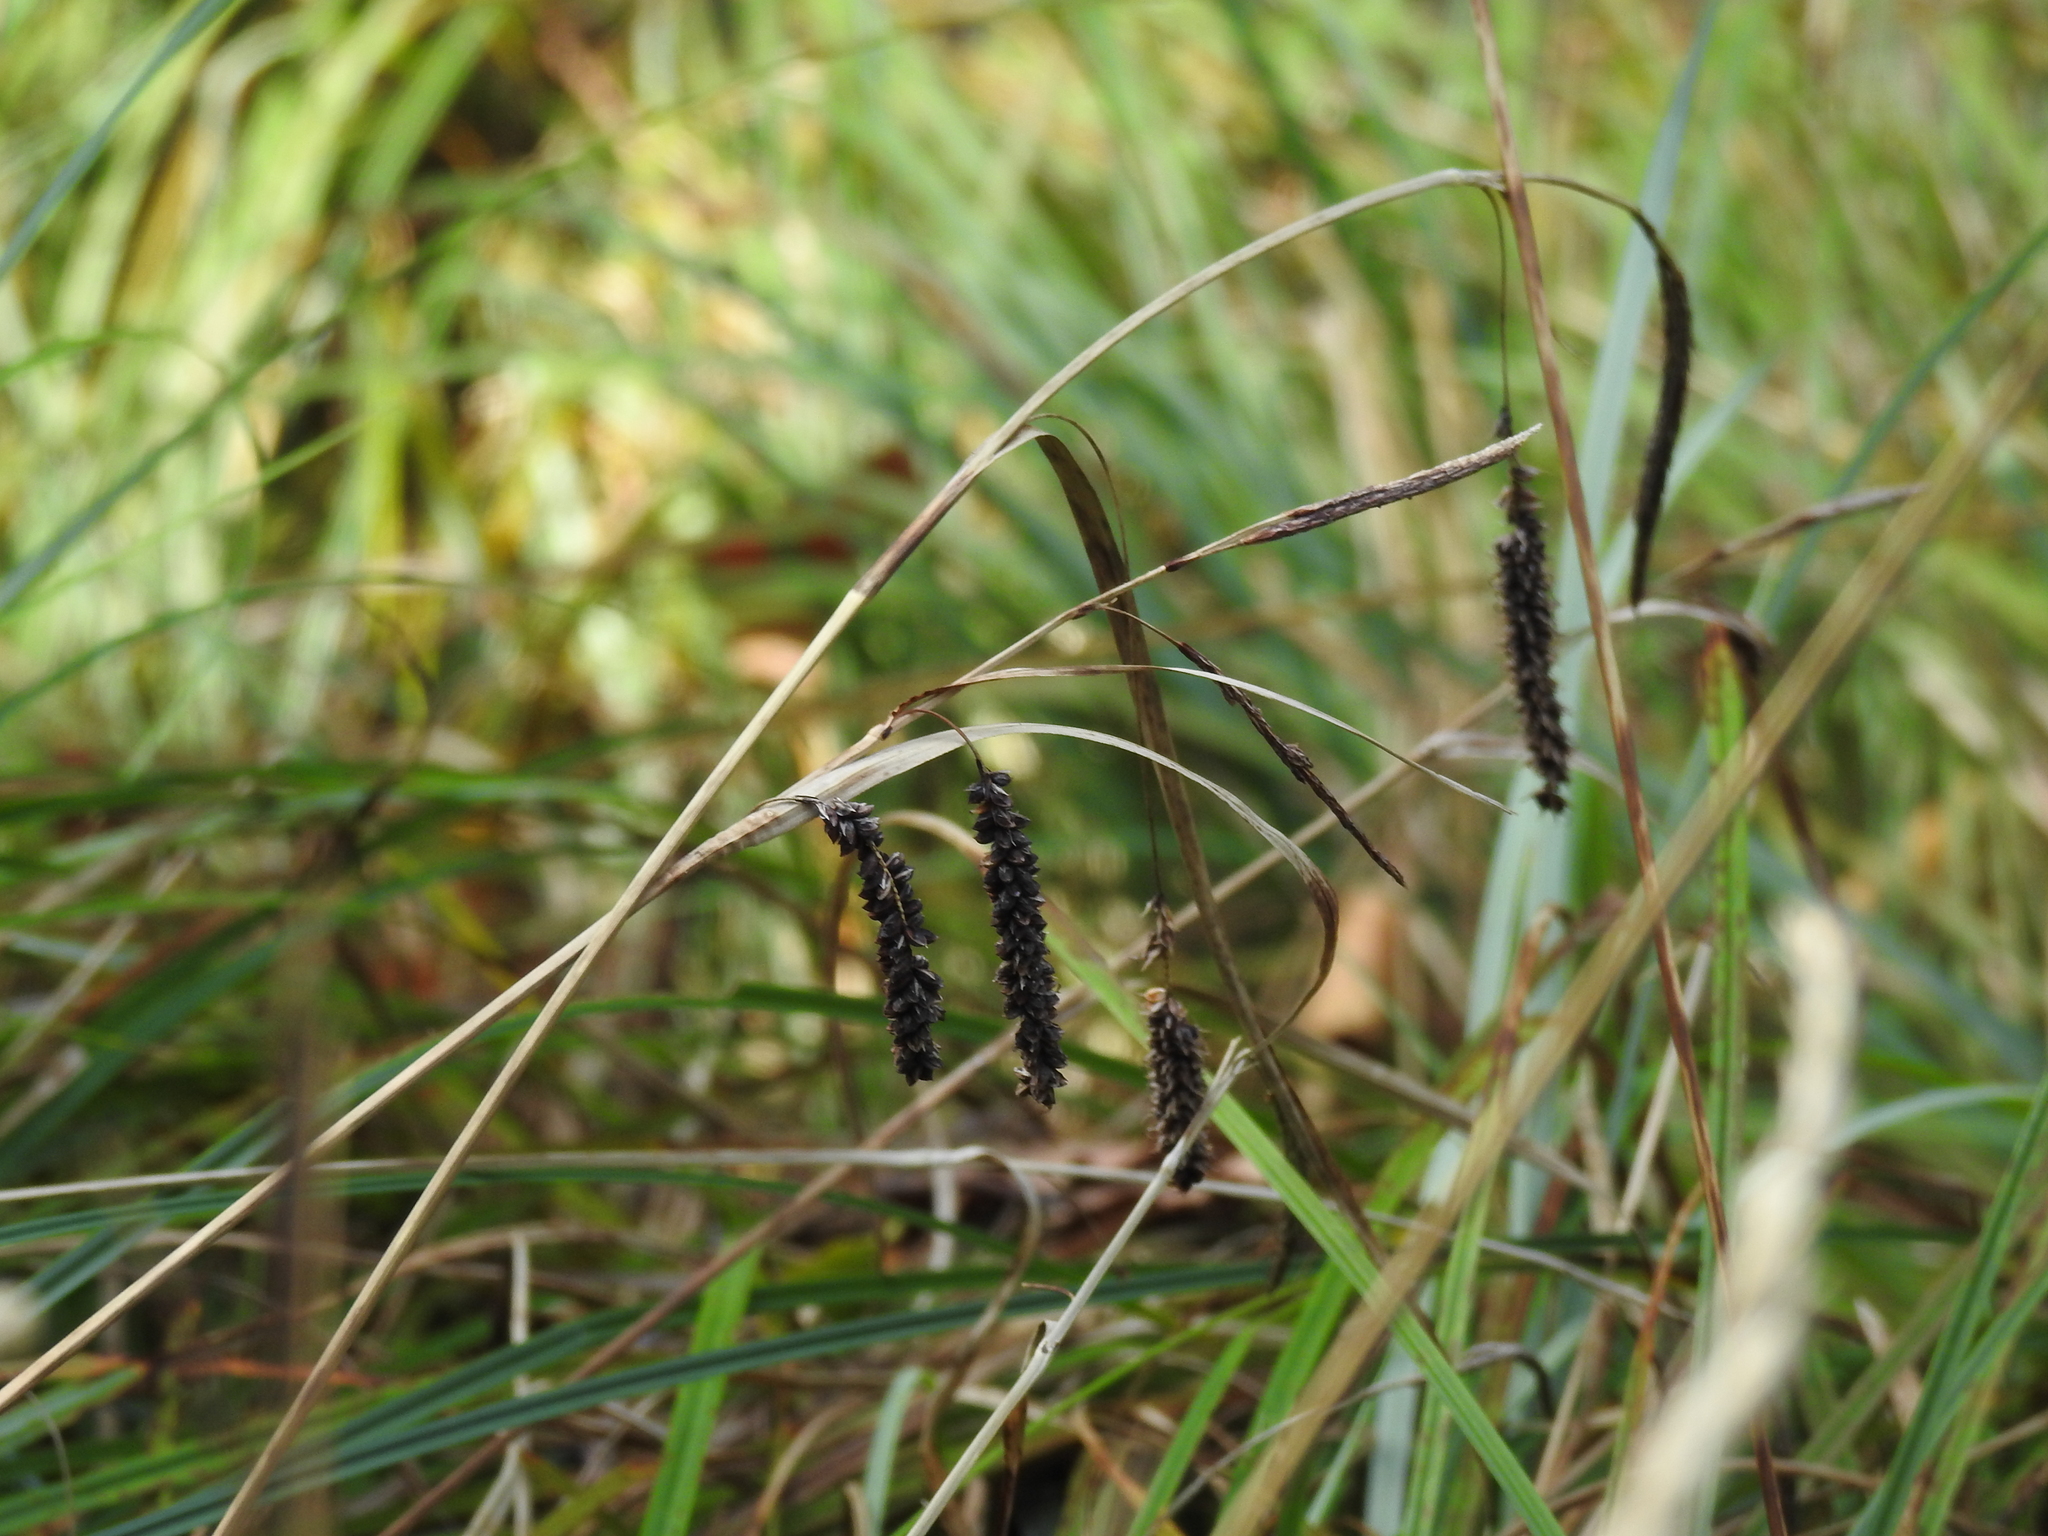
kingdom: Plantae
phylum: Tracheophyta
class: Liliopsida
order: Poales
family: Cyperaceae
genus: Carex
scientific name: Carex flacca
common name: Glaucous sedge
